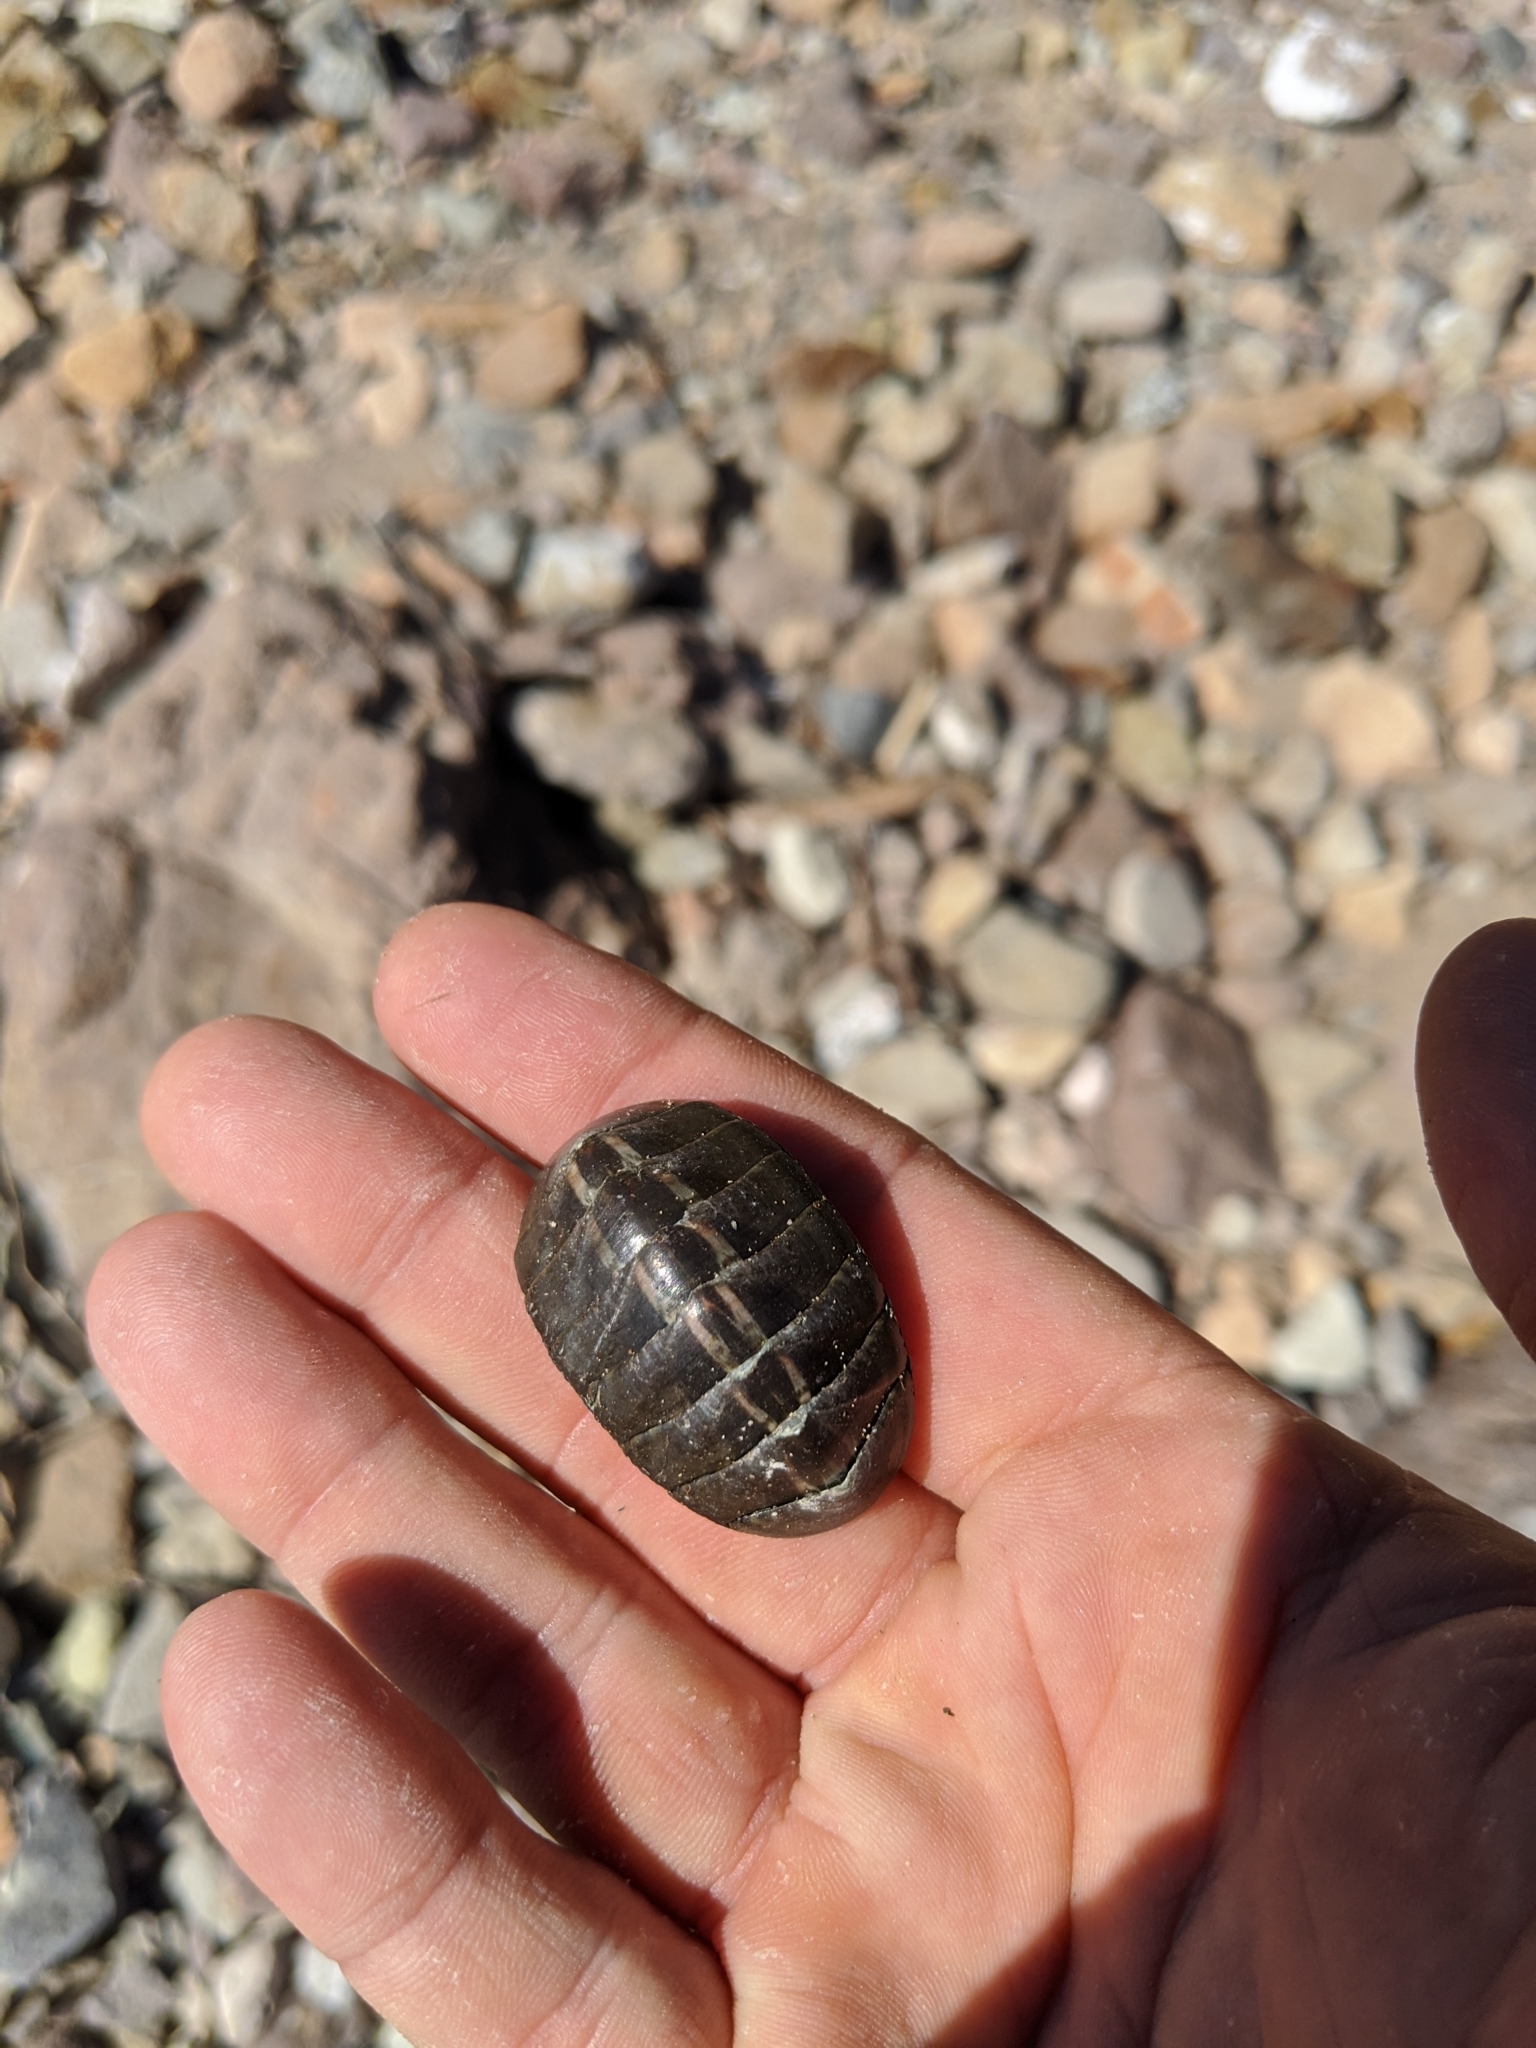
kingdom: Animalia
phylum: Mollusca
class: Polyplacophora
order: Chitonida
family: Chitonidae
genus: Chiton
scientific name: Chiton articulatus
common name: Smooth panama chiton
